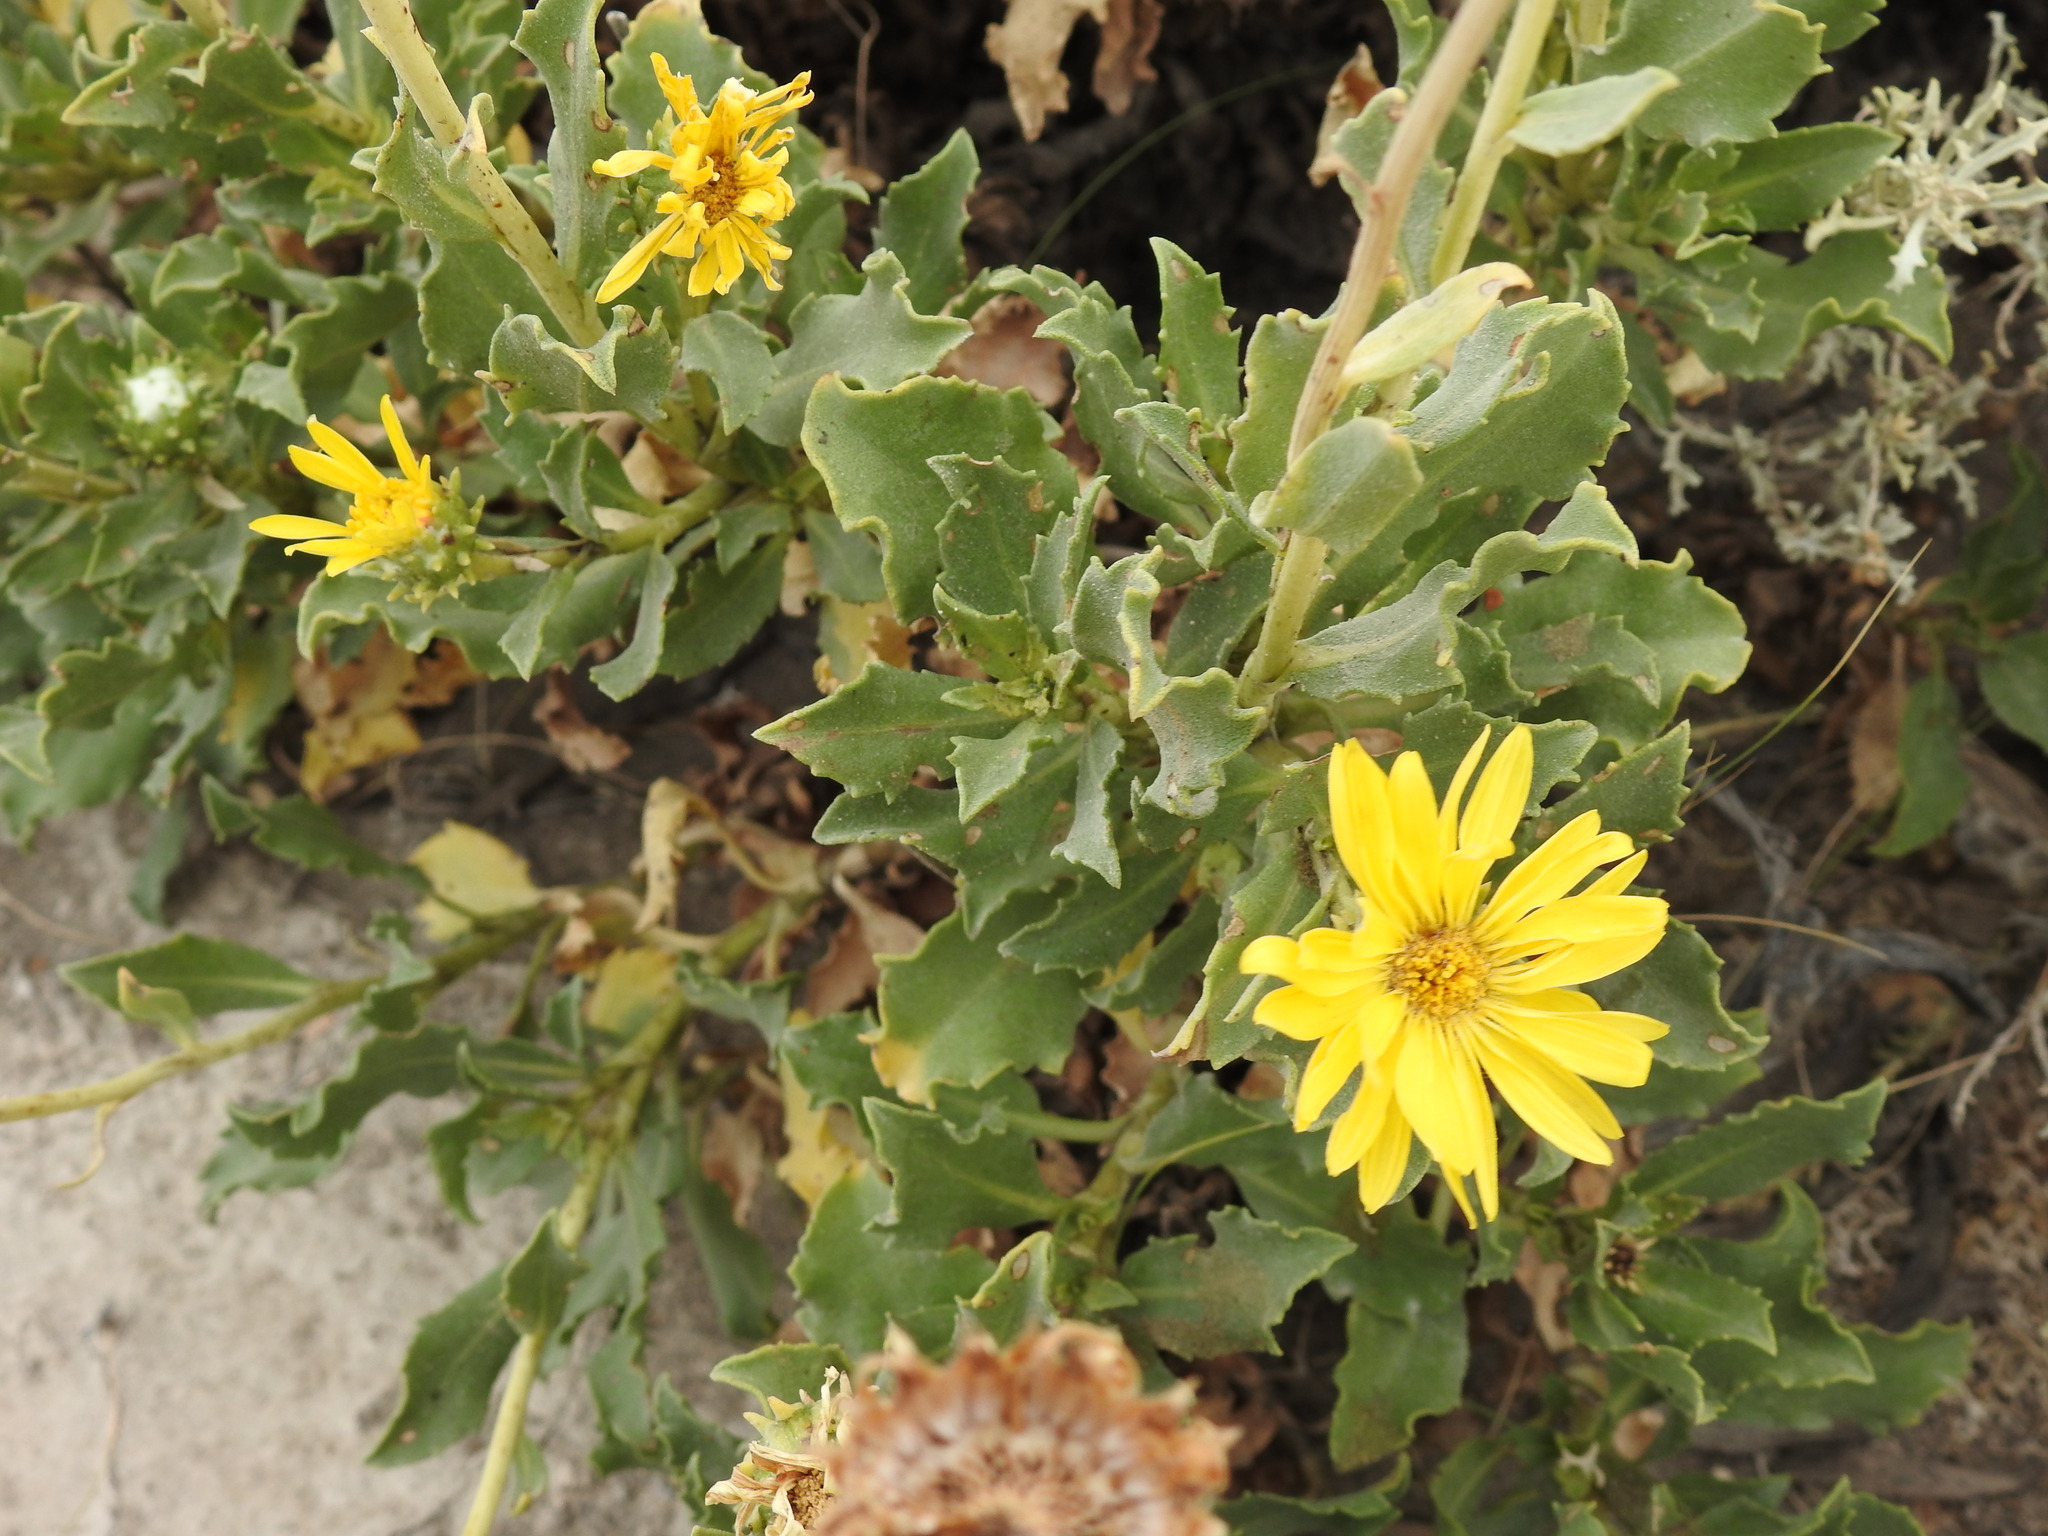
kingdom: Plantae
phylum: Tracheophyta
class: Magnoliopsida
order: Asterales
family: Asteraceae
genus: Grindelia
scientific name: Grindelia chiloensis
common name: Shrubby gumweed
